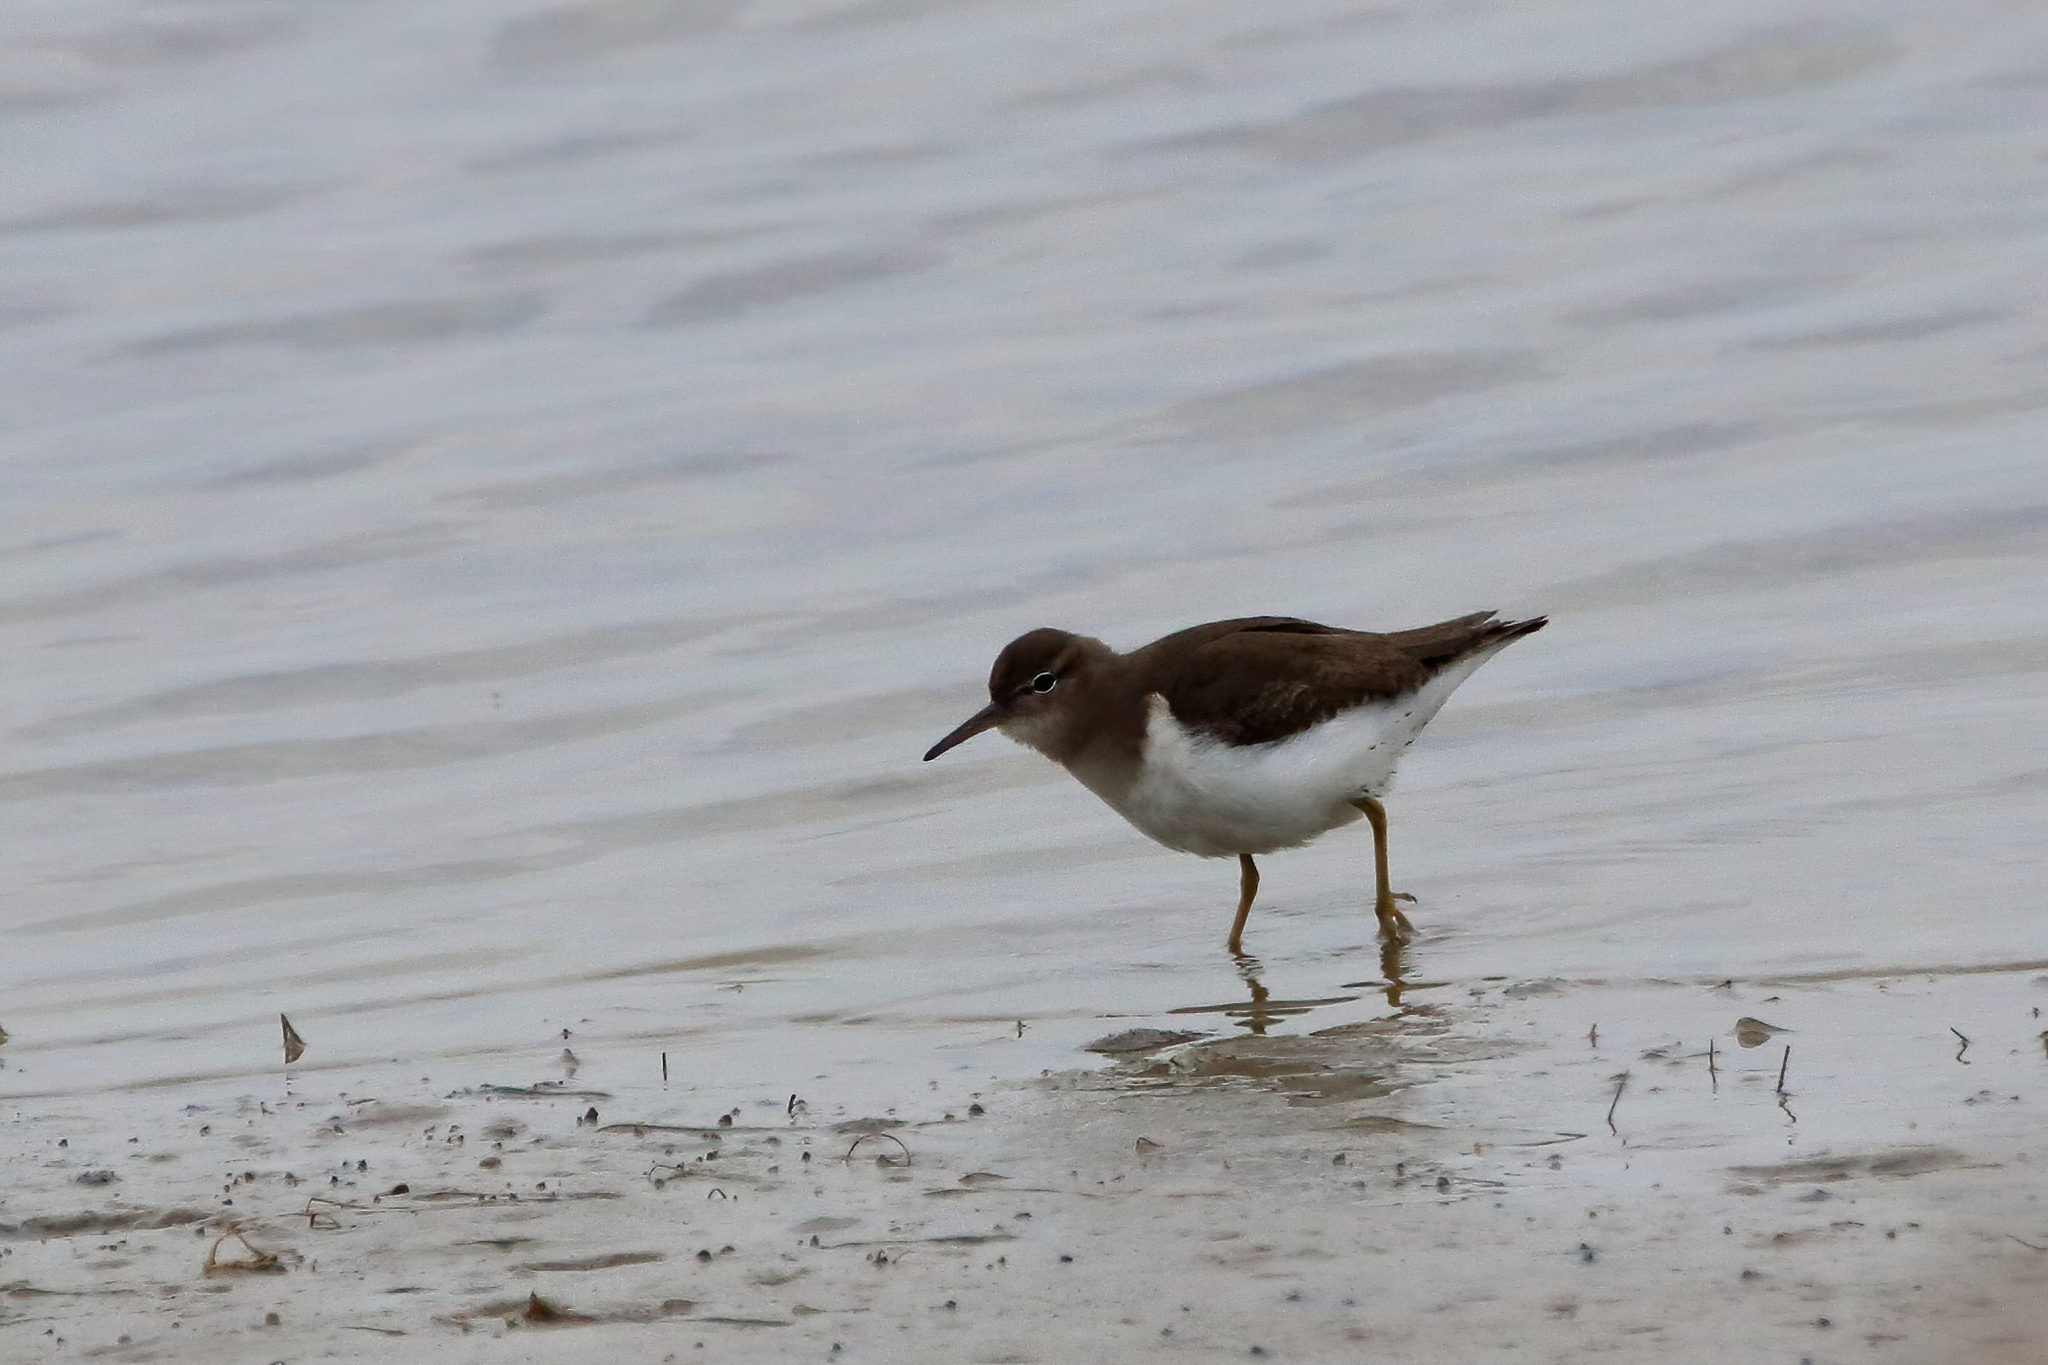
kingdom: Animalia
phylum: Chordata
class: Aves
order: Charadriiformes
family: Scolopacidae
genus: Actitis
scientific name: Actitis macularius
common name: Spotted sandpiper
